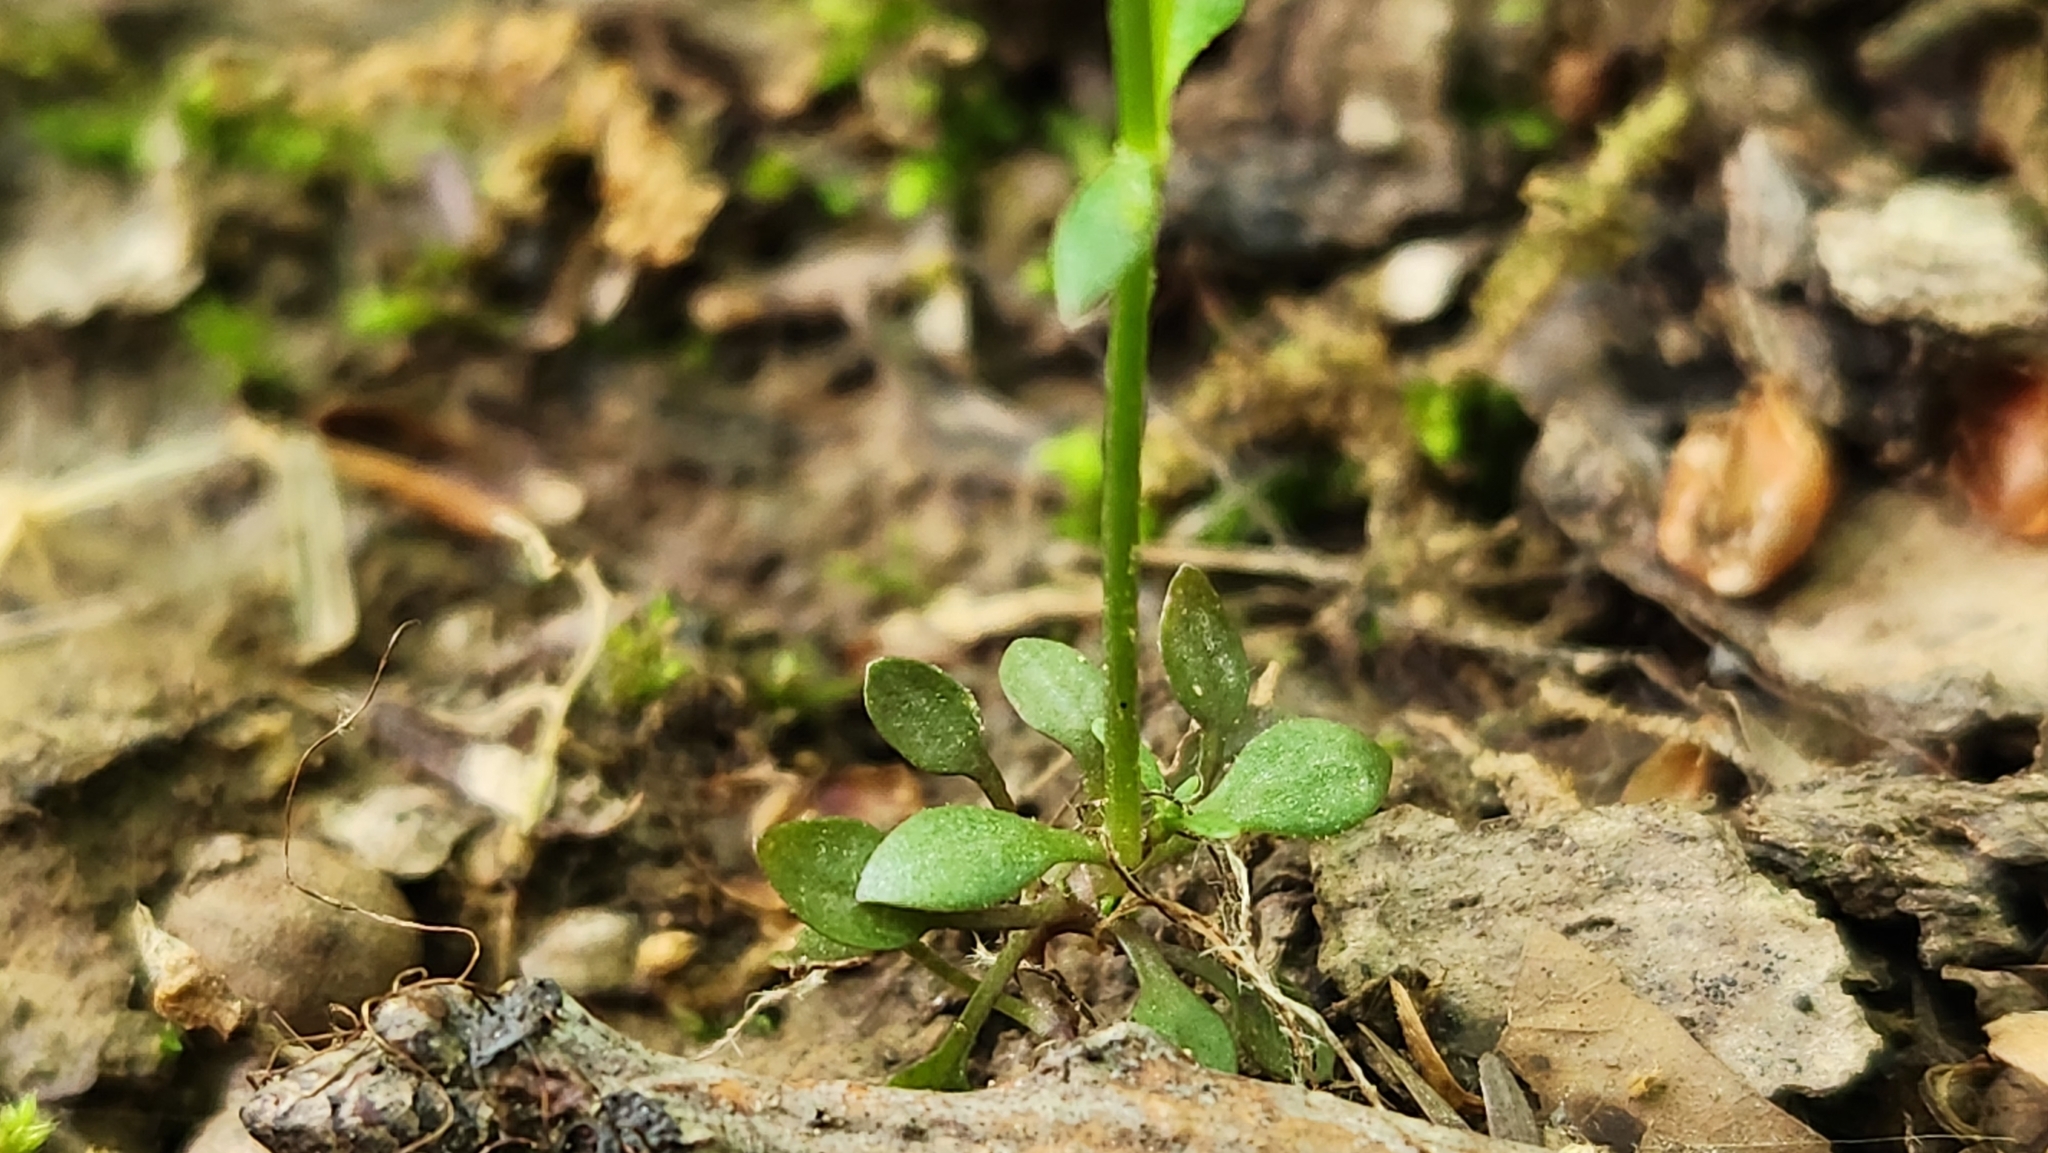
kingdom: Plantae
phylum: Tracheophyta
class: Magnoliopsida
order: Gentianales
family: Rubiaceae
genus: Houstonia
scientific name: Houstonia caerulea
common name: Bluets
